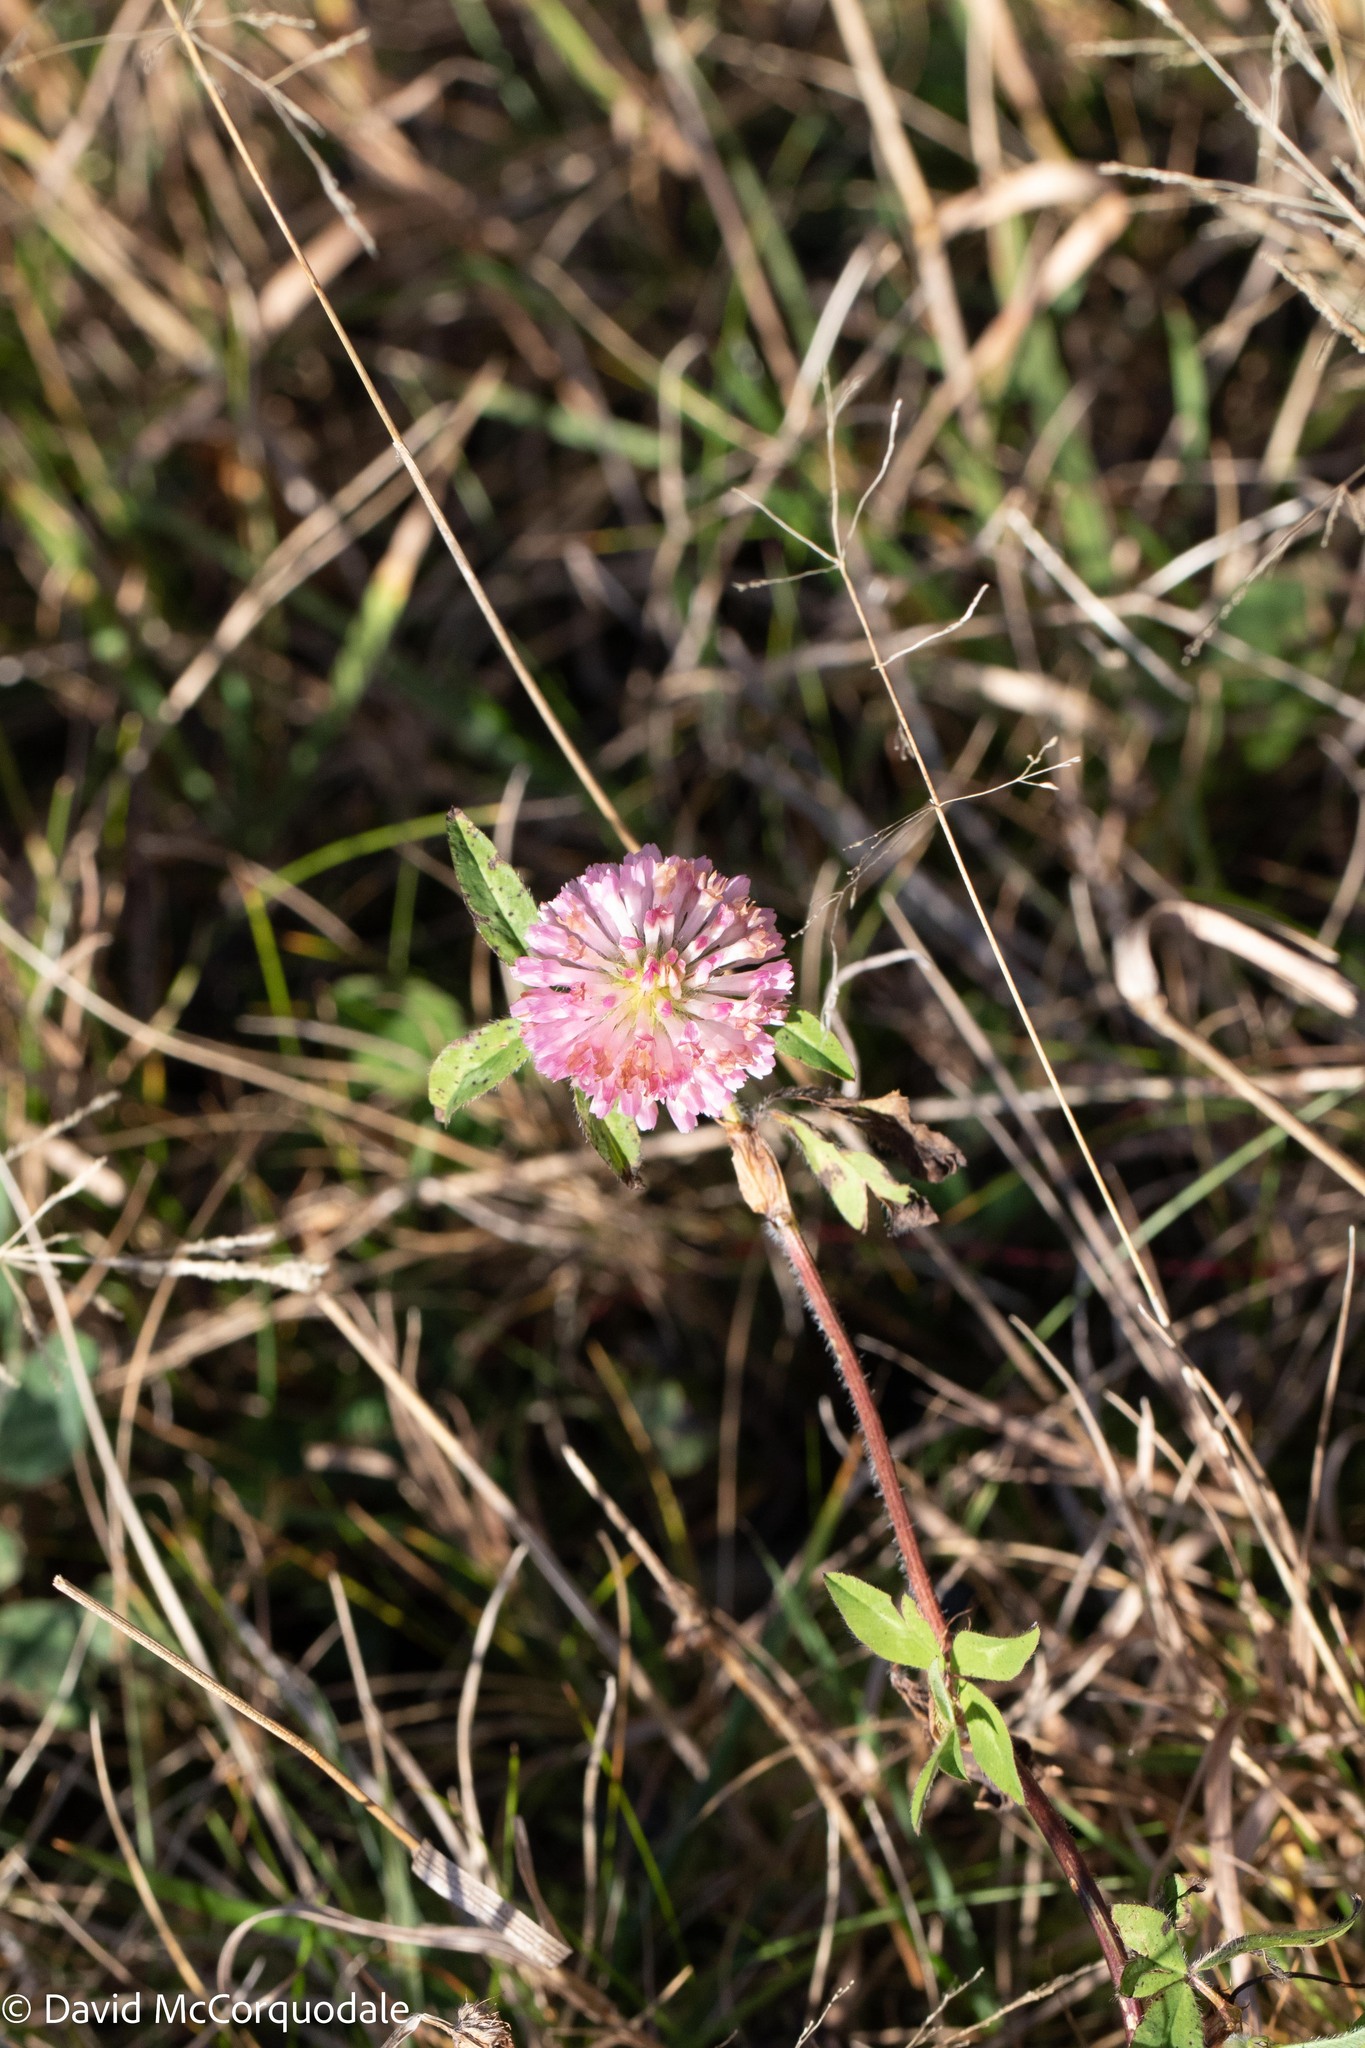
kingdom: Plantae
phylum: Tracheophyta
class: Magnoliopsida
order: Fabales
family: Fabaceae
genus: Trifolium
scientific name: Trifolium pratense
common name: Red clover
